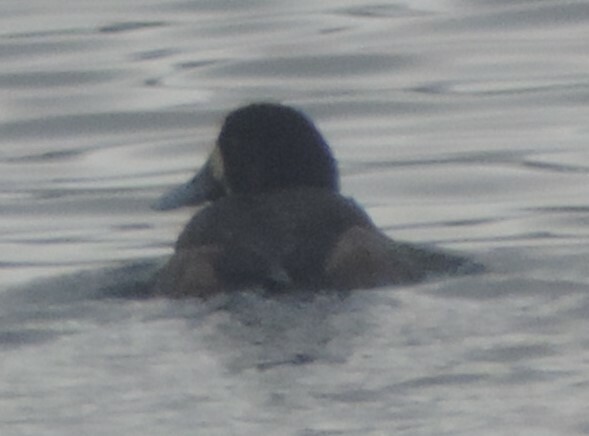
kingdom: Animalia
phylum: Chordata
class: Aves
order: Anseriformes
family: Anatidae
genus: Aythya
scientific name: Aythya marila
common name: Greater scaup
